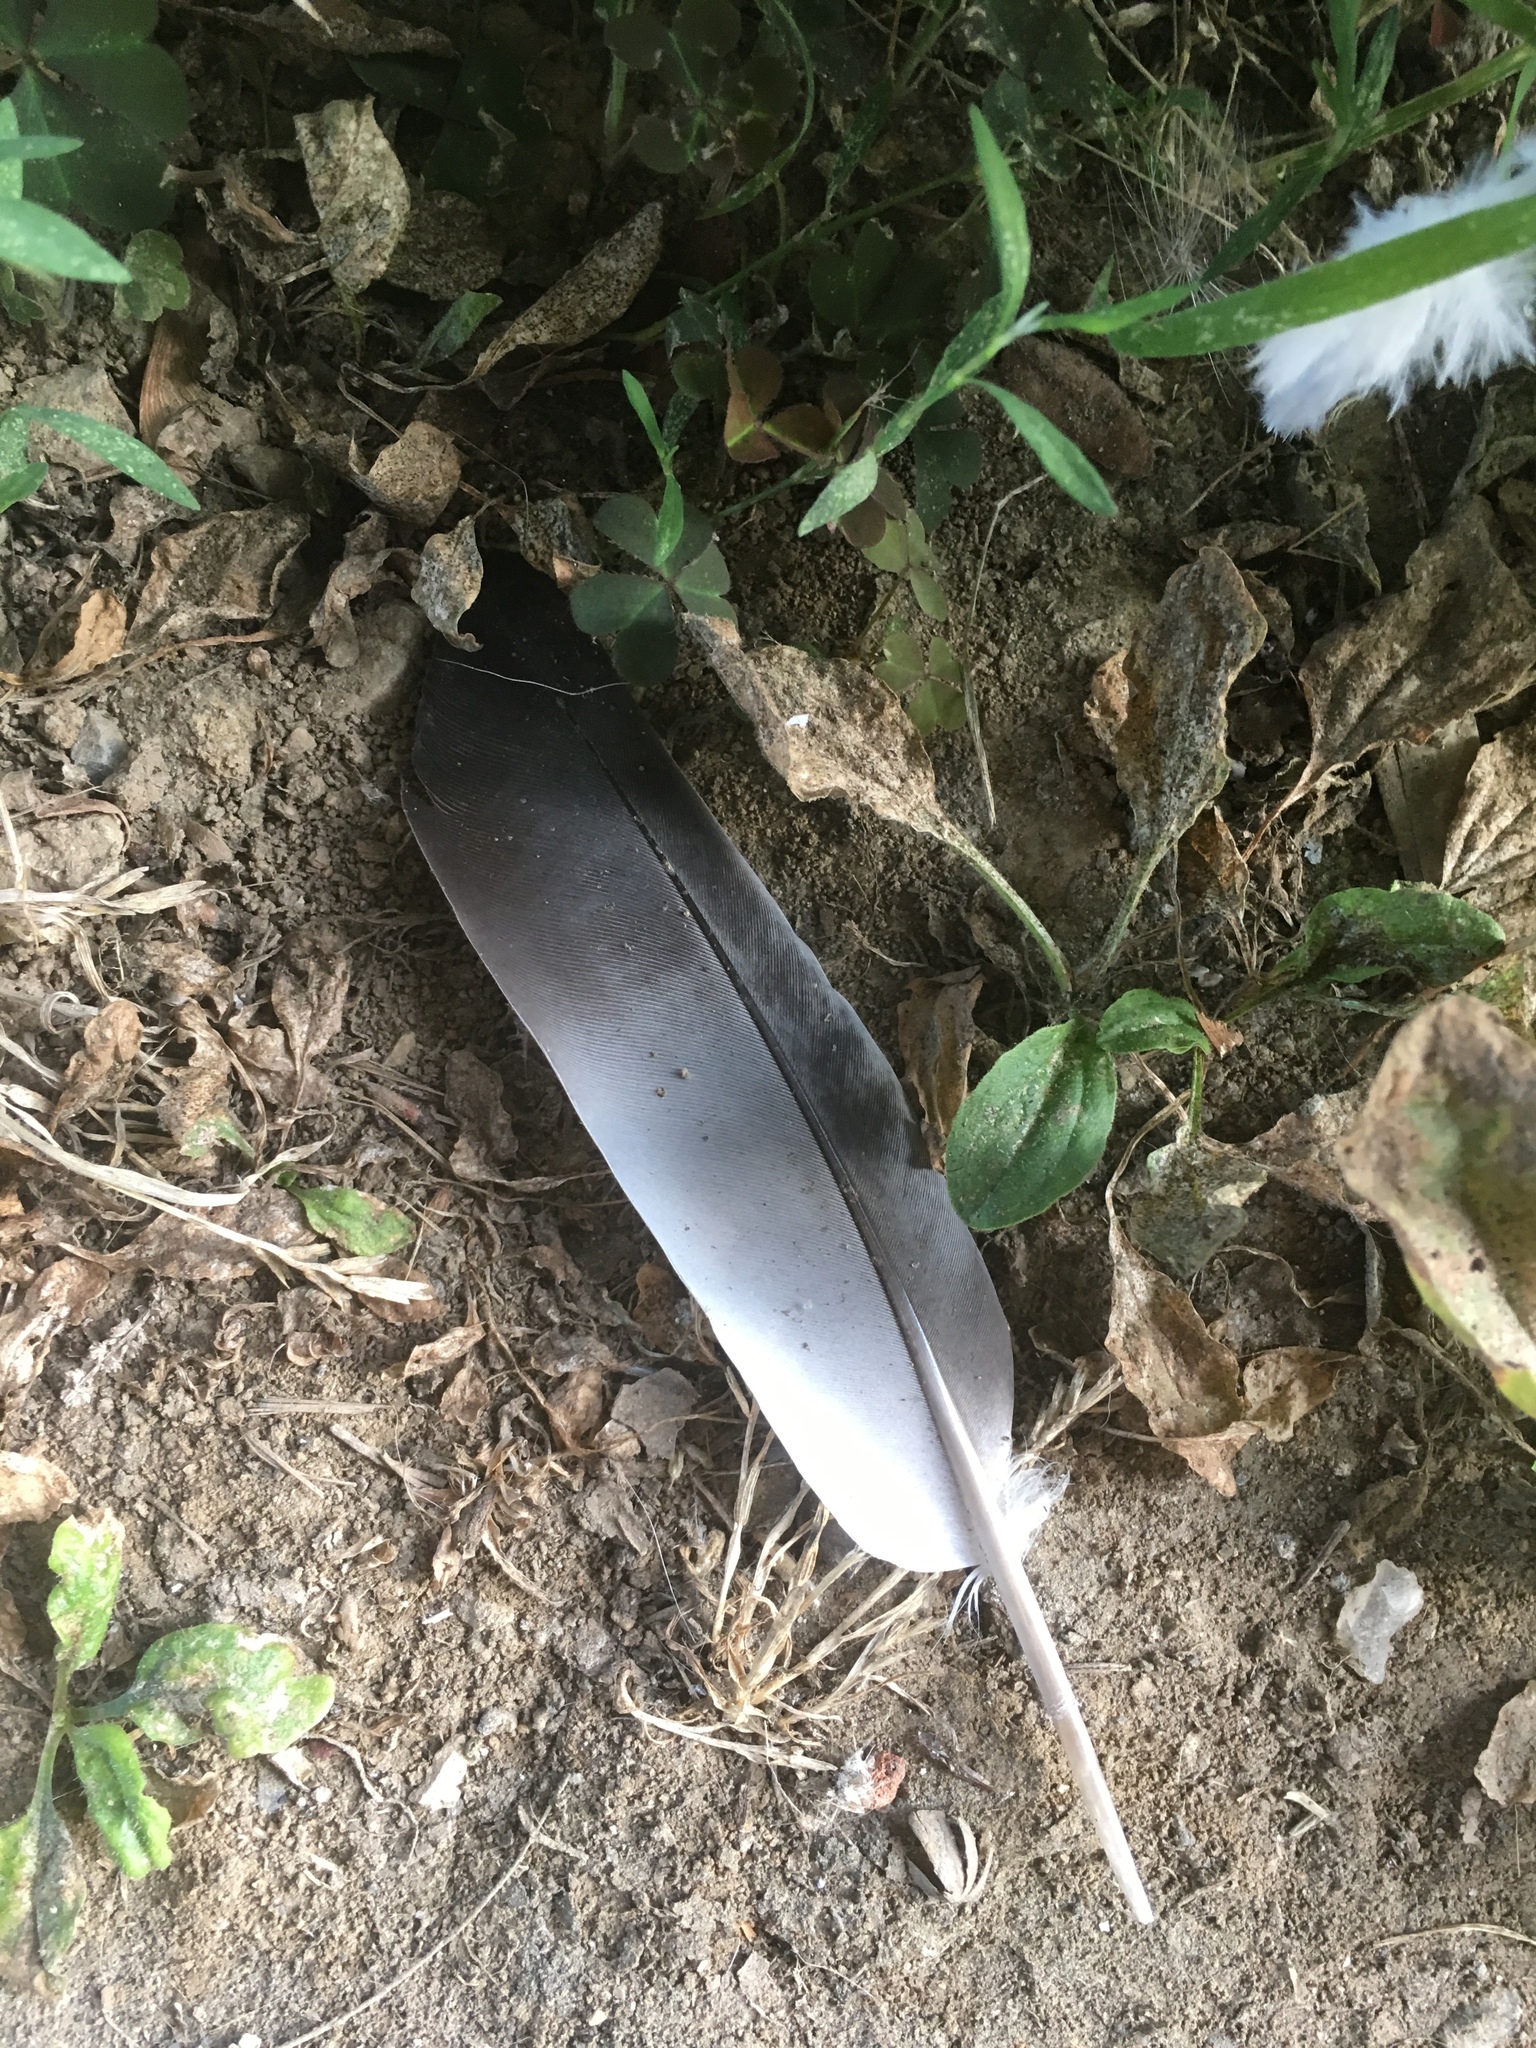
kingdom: Animalia
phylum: Chordata
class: Aves
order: Columbiformes
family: Columbidae
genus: Columba
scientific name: Columba livia
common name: Rock pigeon
